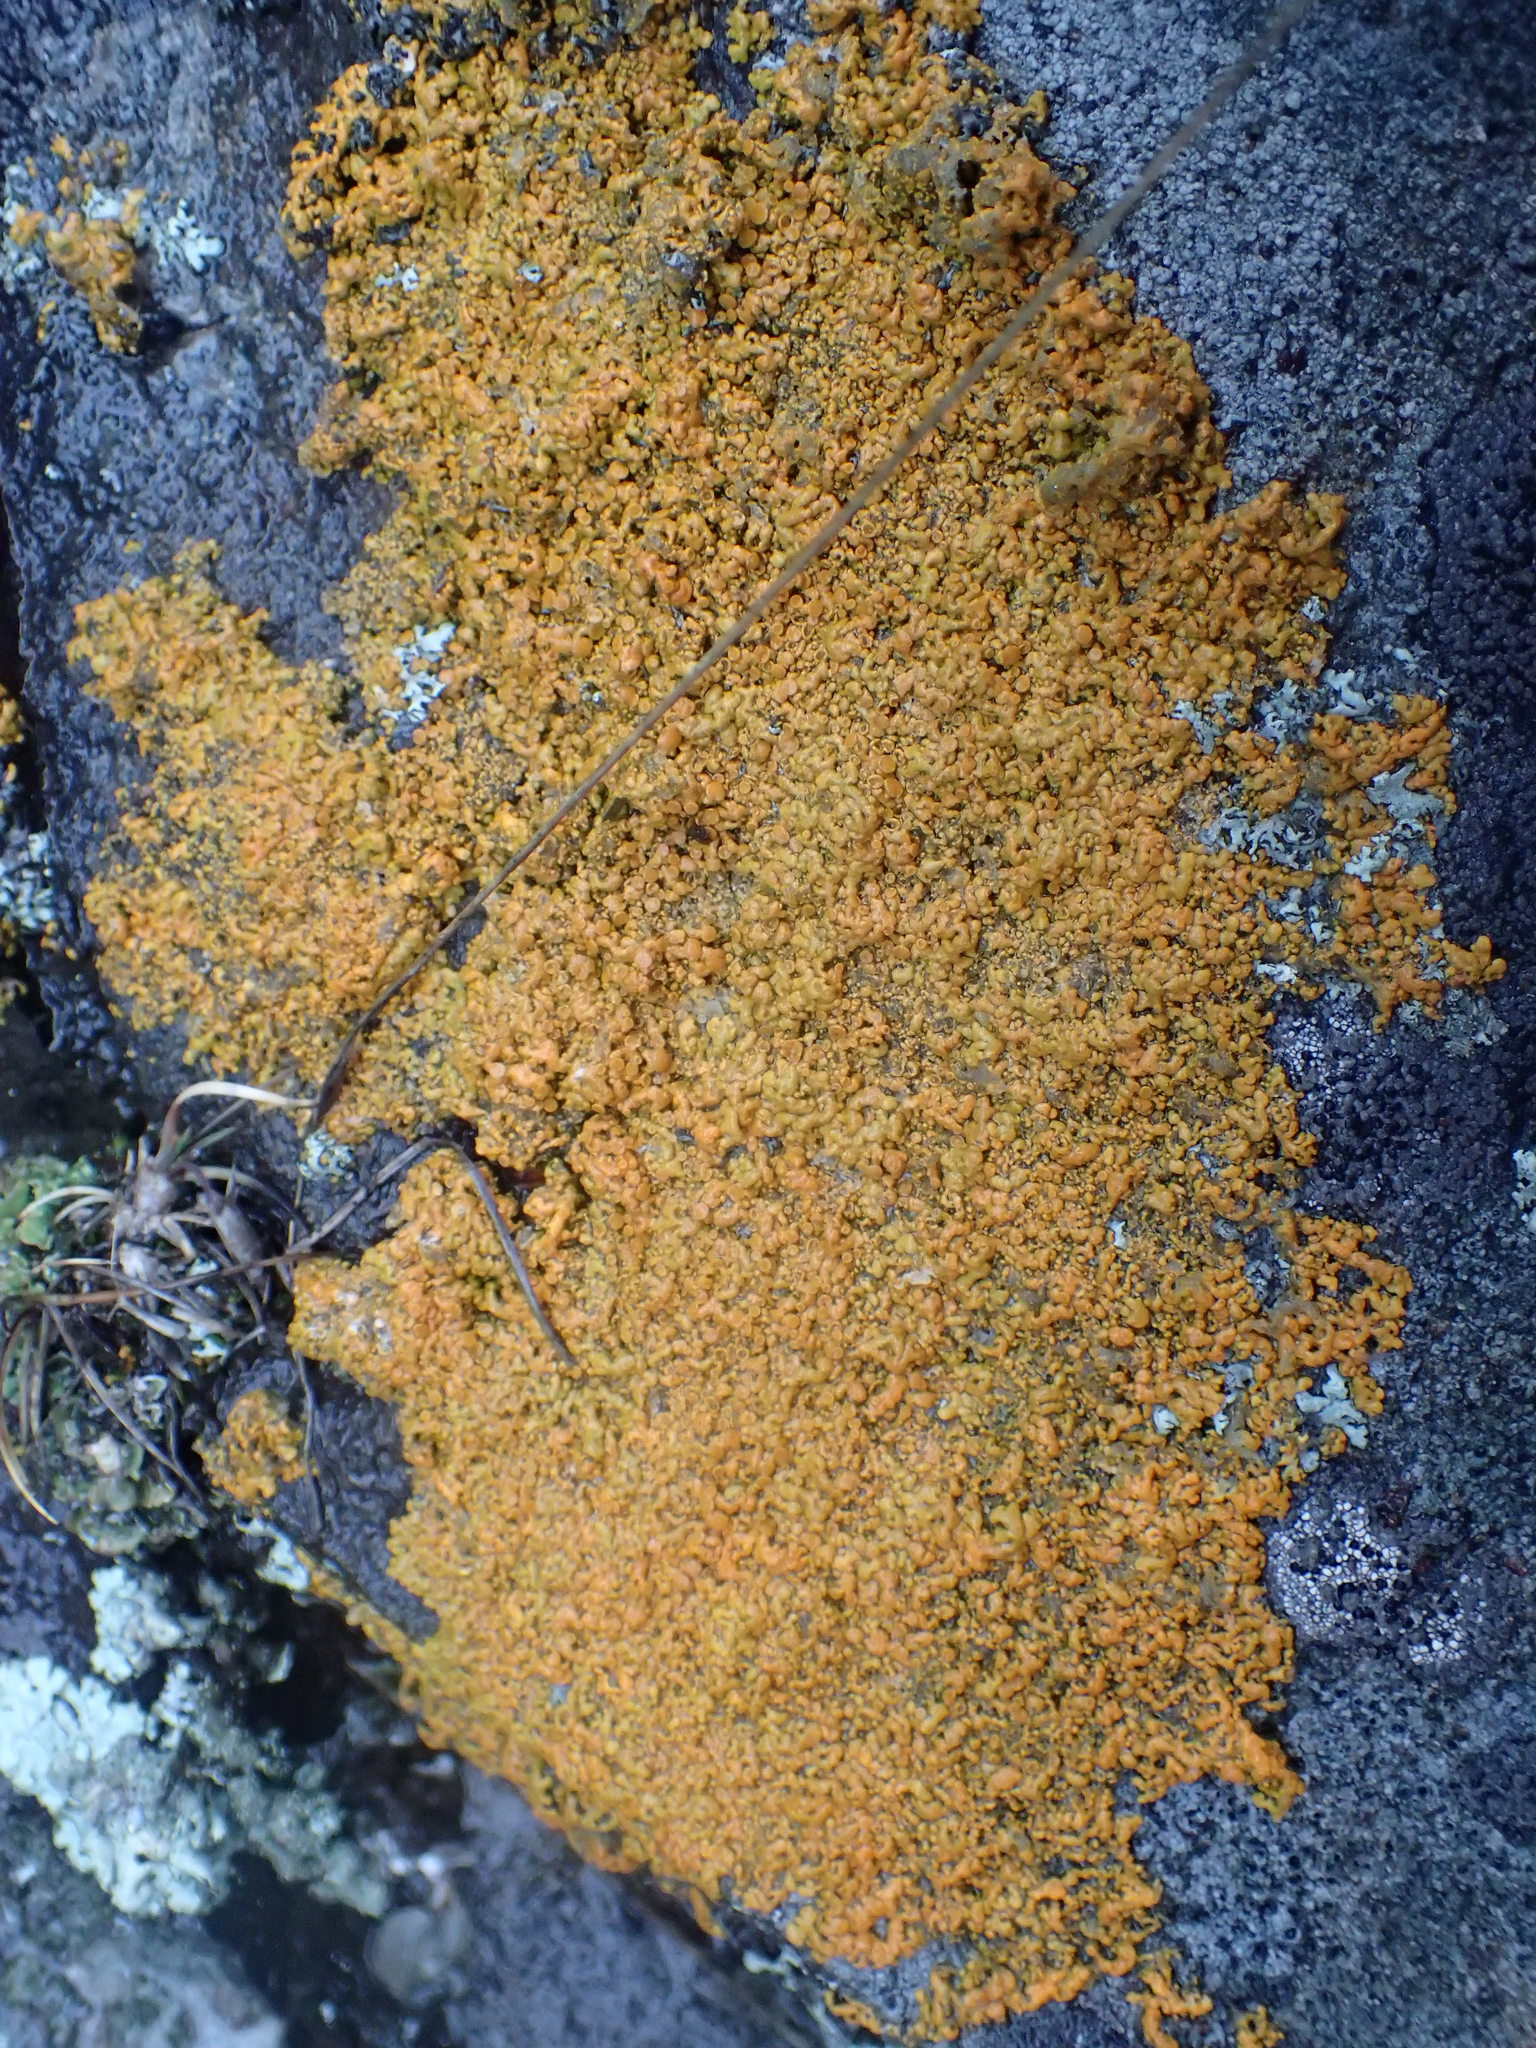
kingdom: Fungi
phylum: Ascomycota
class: Lecanoromycetes
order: Teloschistales
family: Teloschistaceae
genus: Xanthoria
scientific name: Xanthoria elegans
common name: Elegant sunburst lichen
